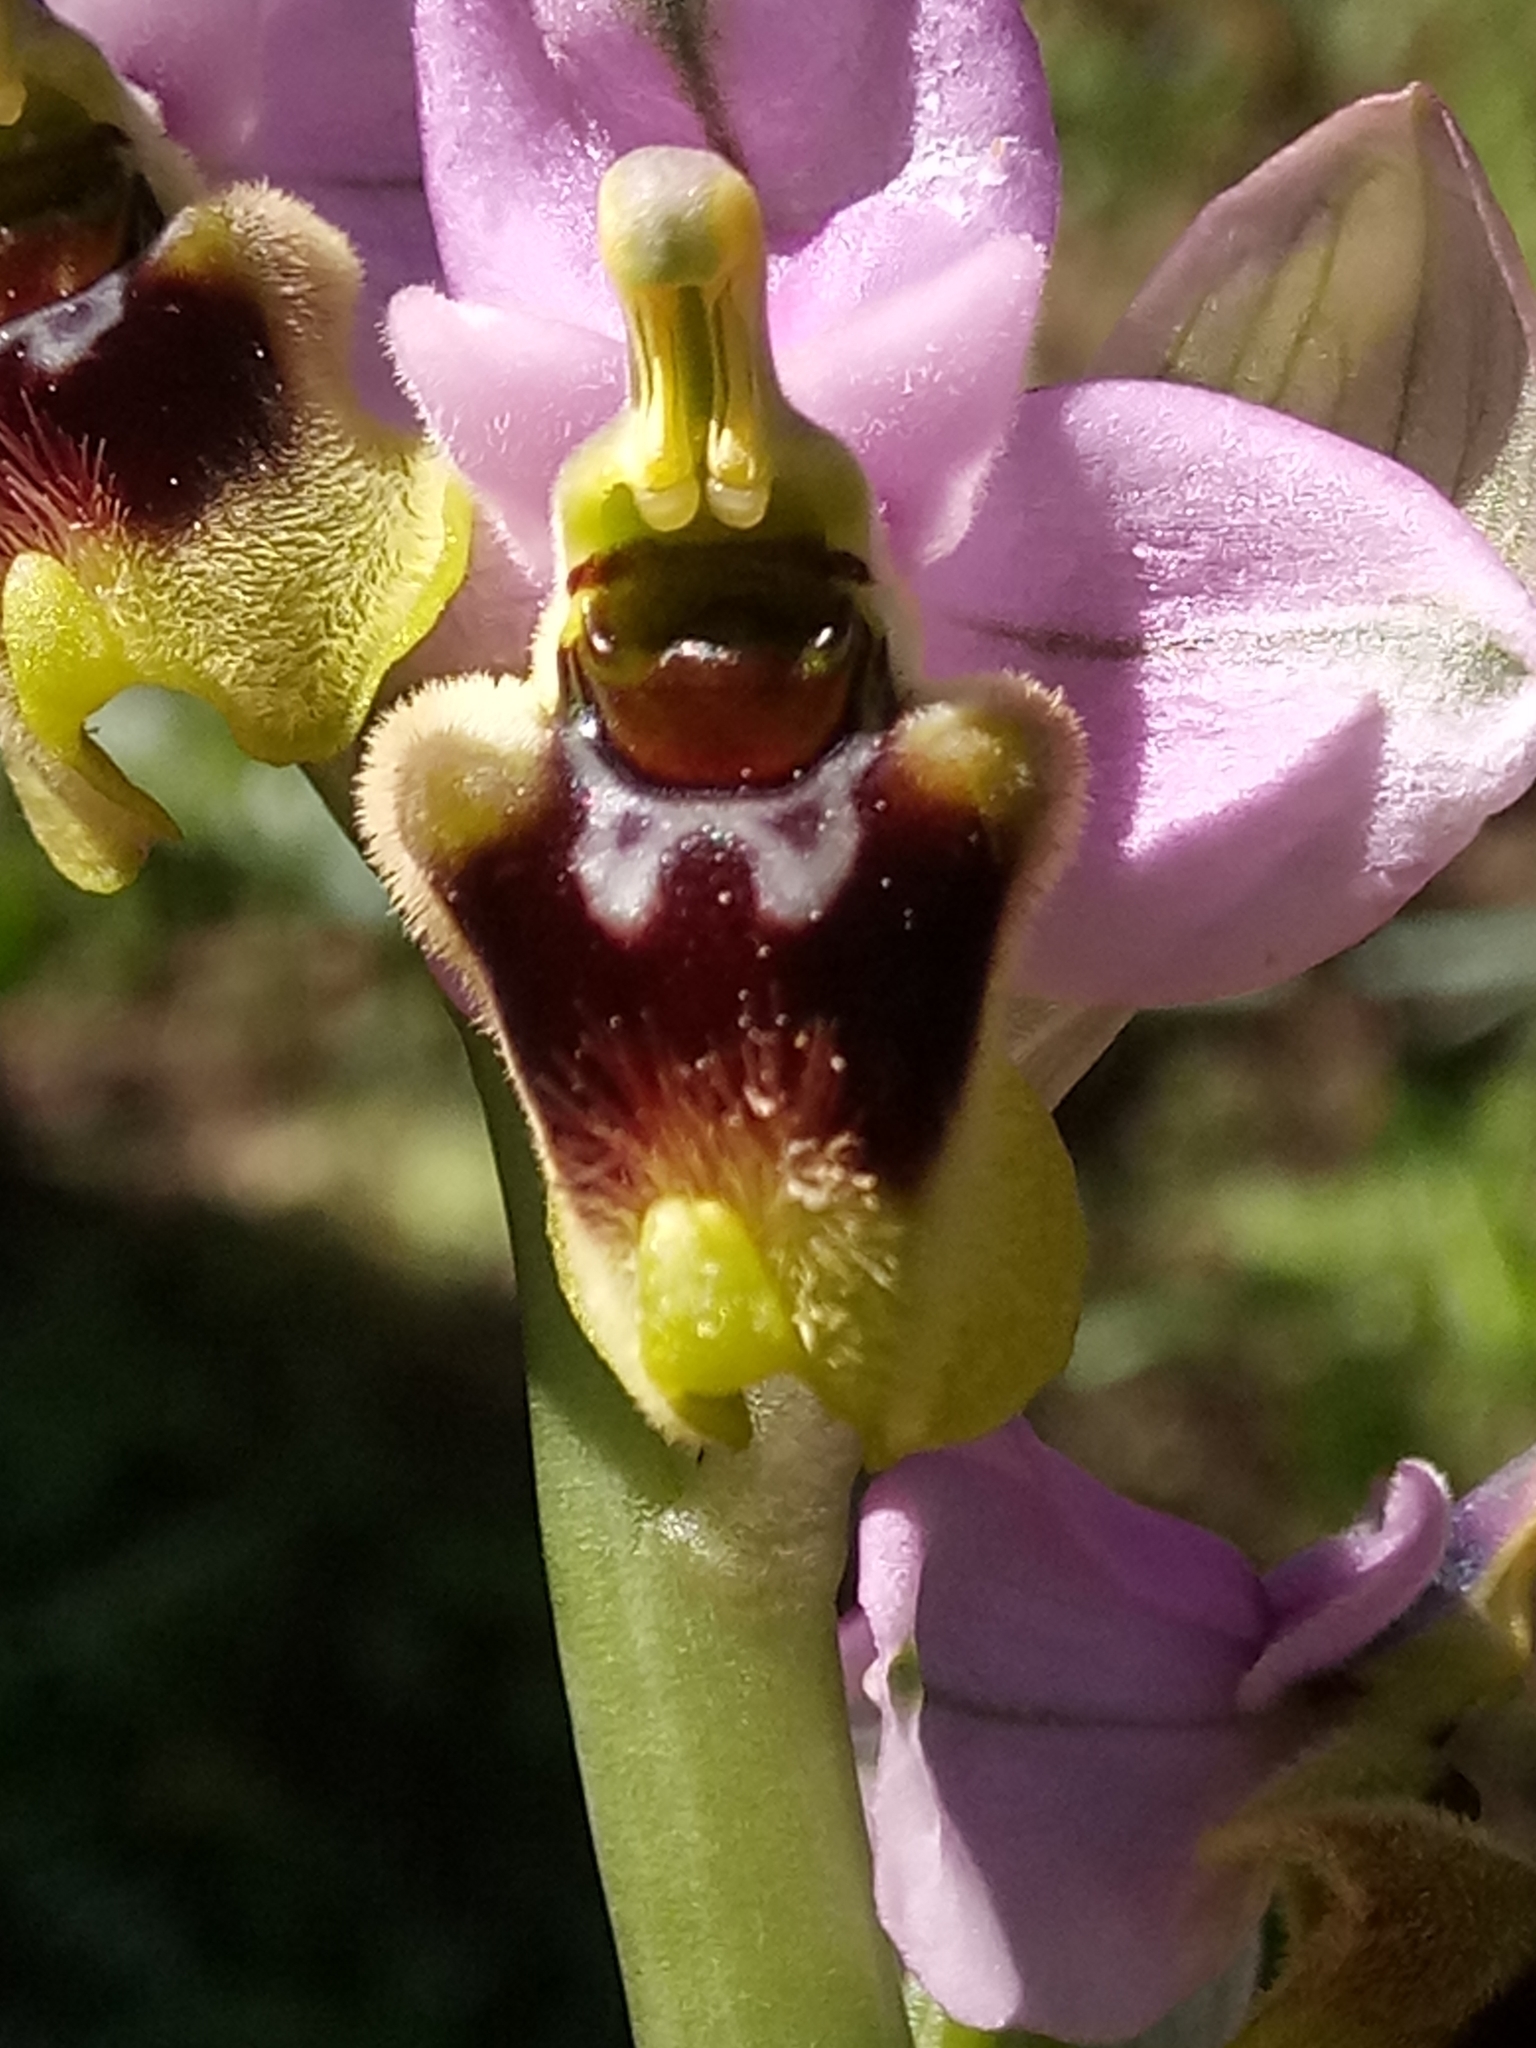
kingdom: Plantae
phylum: Tracheophyta
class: Liliopsida
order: Asparagales
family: Orchidaceae
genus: Ophrys
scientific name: Ophrys tenthredinifera
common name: Sawfly orchid
